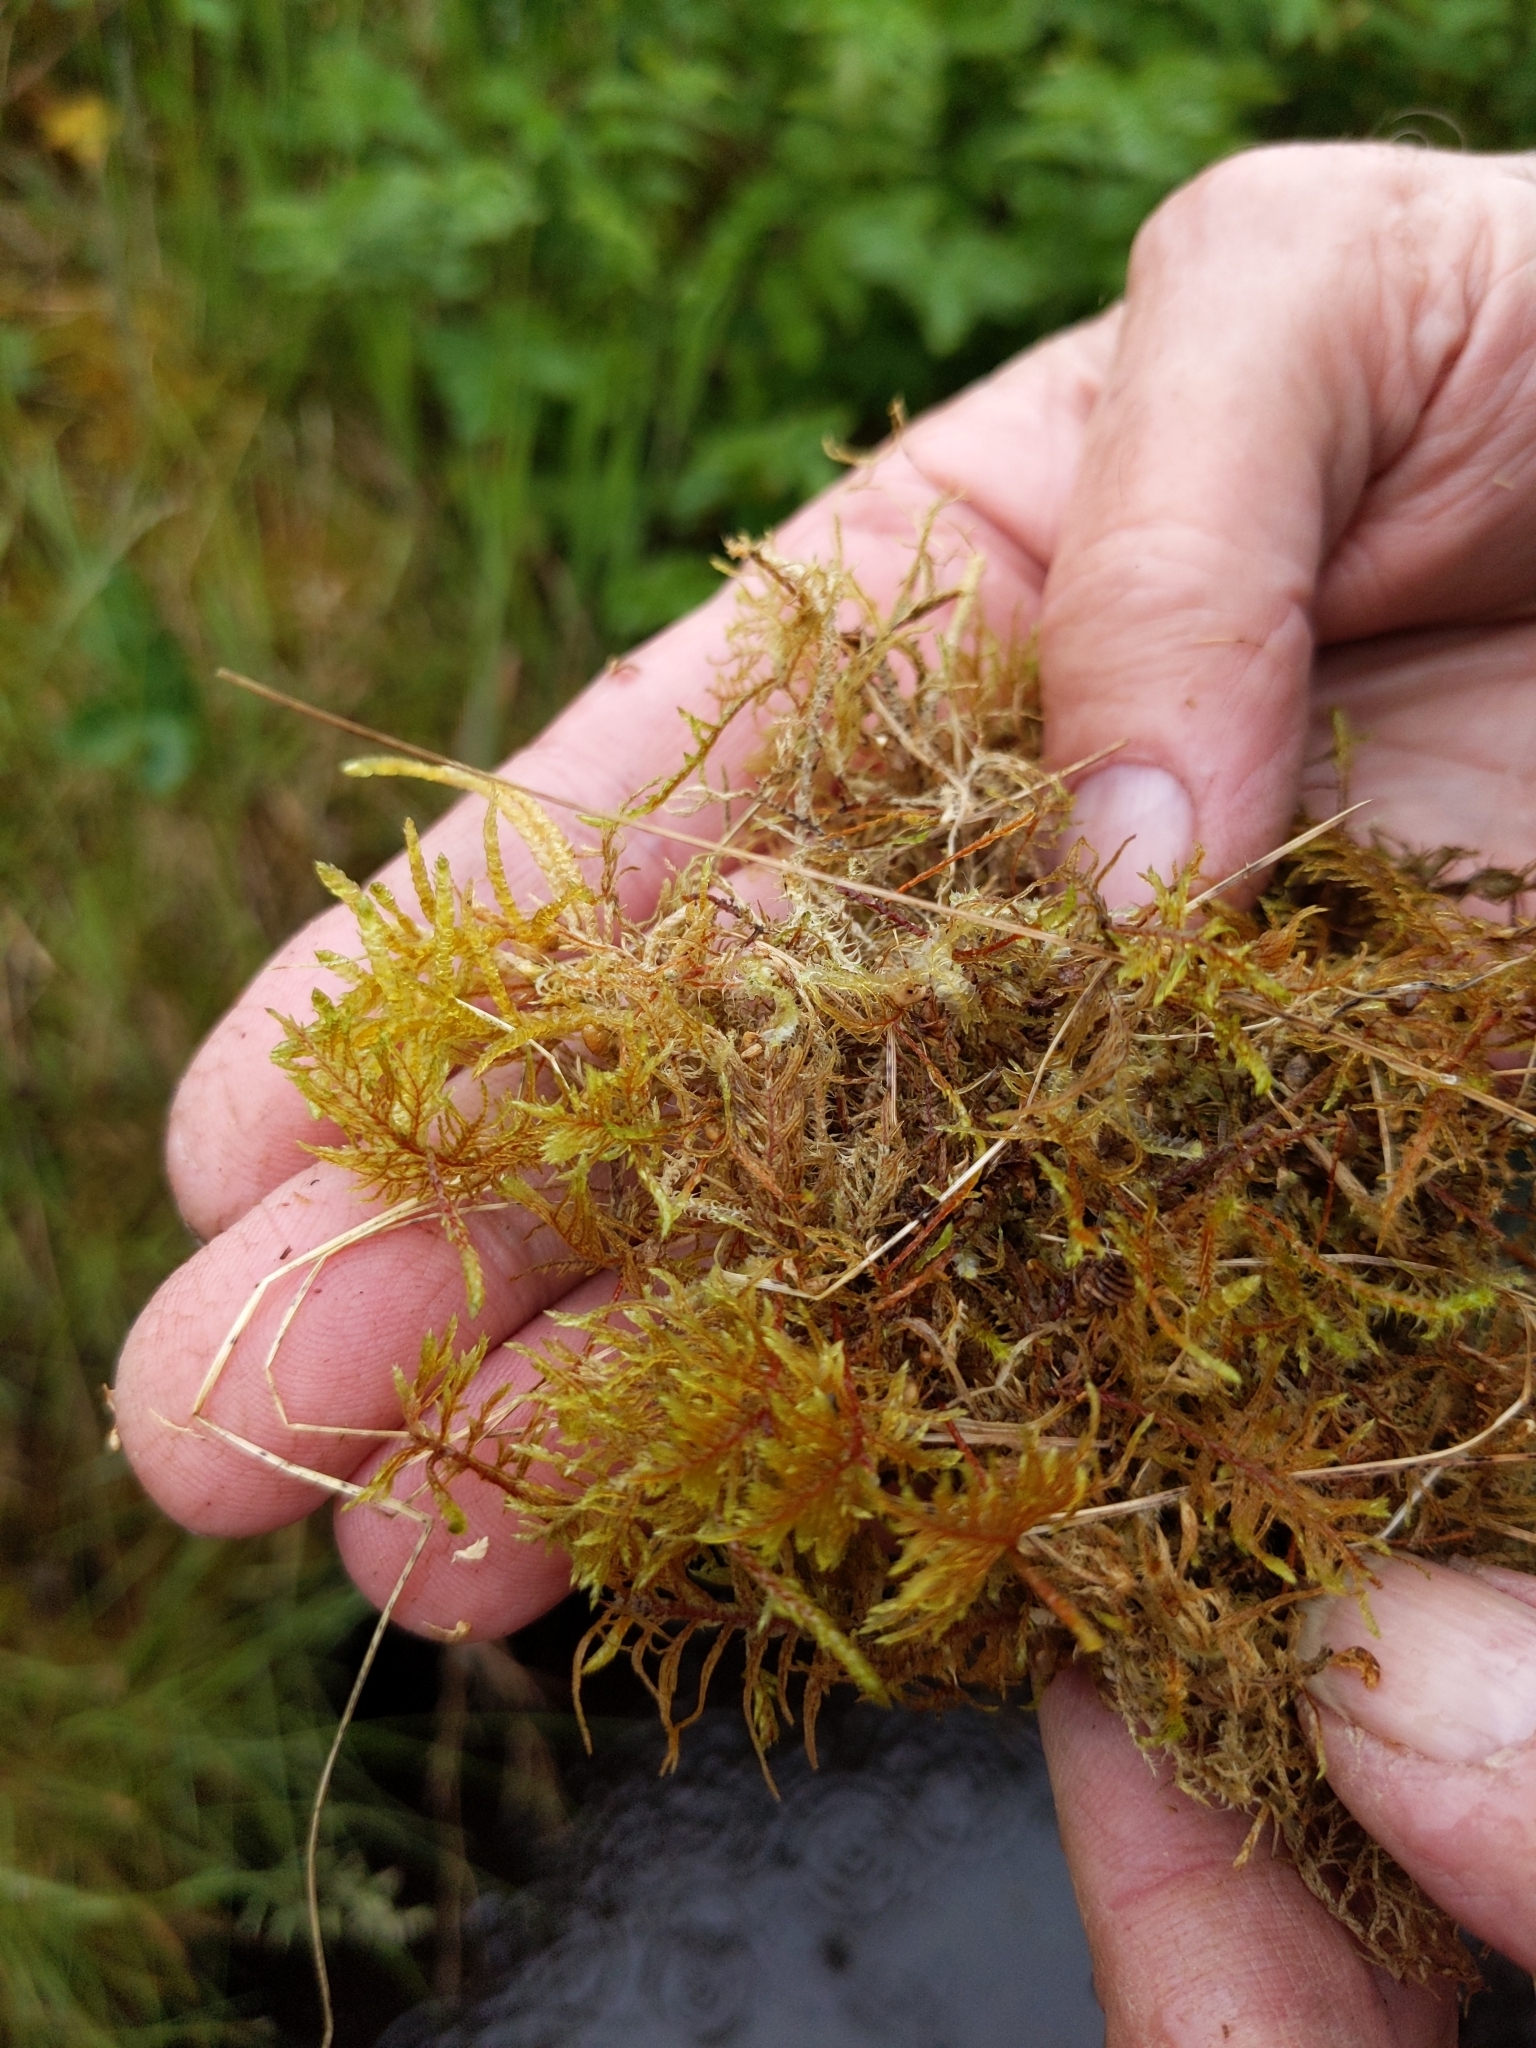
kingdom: Plantae
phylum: Bryophyta
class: Bryopsida
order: Hypnales
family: Hylocomiaceae
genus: Hylocomium
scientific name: Hylocomium splendens
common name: Stairstep moss
